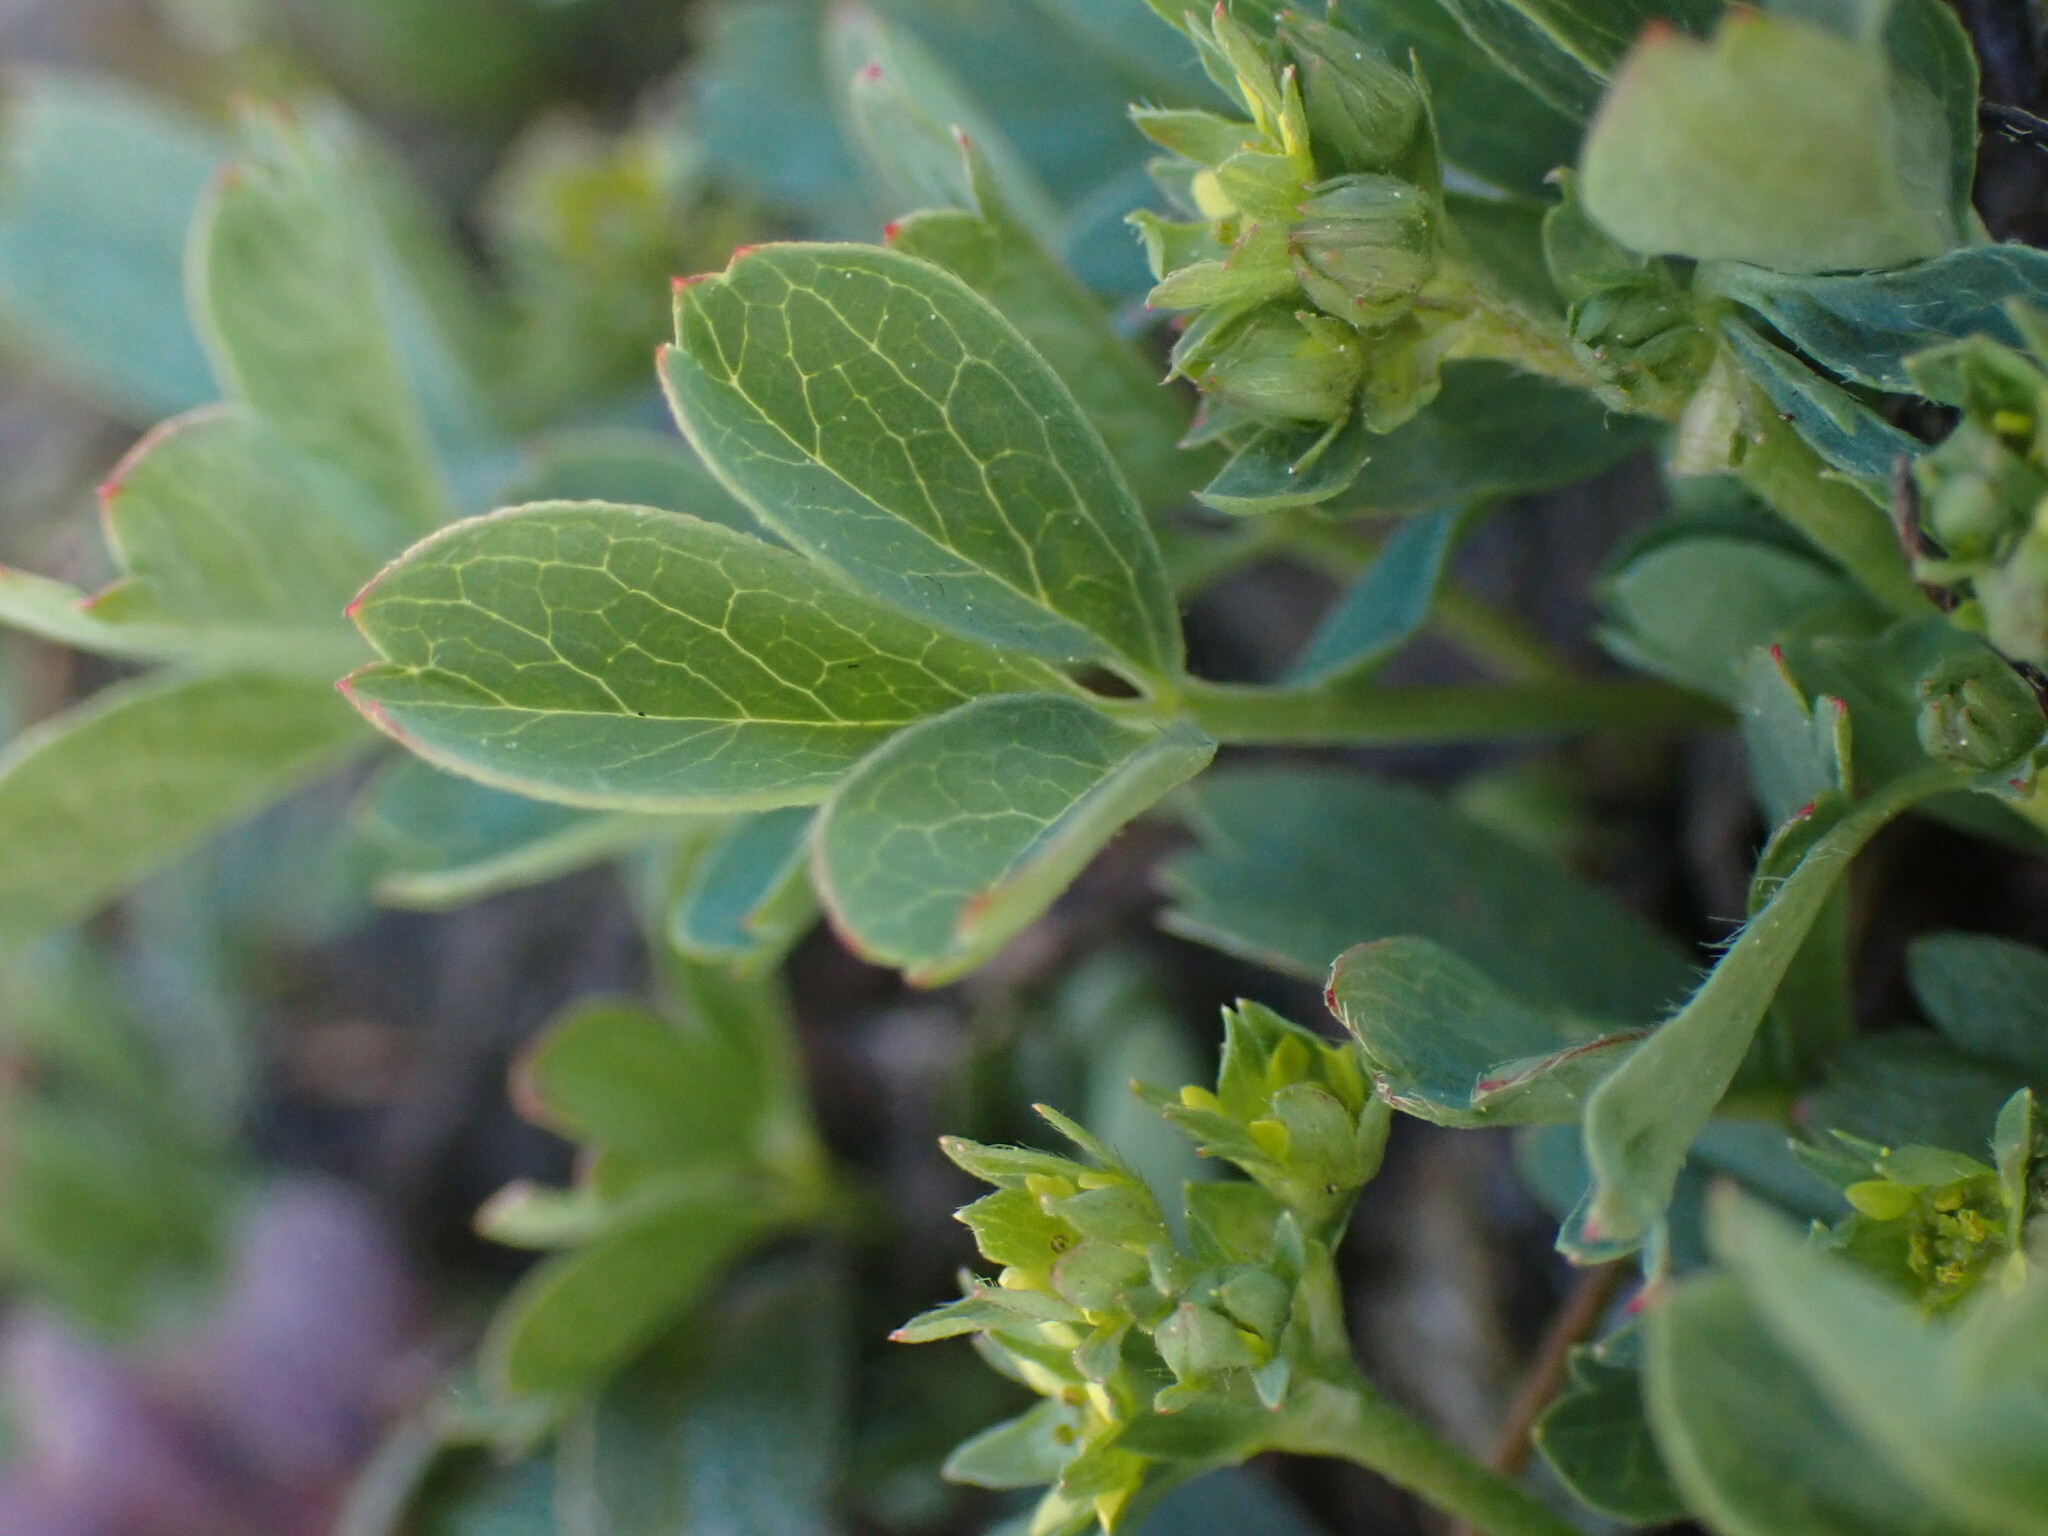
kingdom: Plantae
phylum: Tracheophyta
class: Magnoliopsida
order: Rosales
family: Rosaceae
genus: Sibbaldia
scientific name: Sibbaldia procumbens
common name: Creeping sibbaldia
